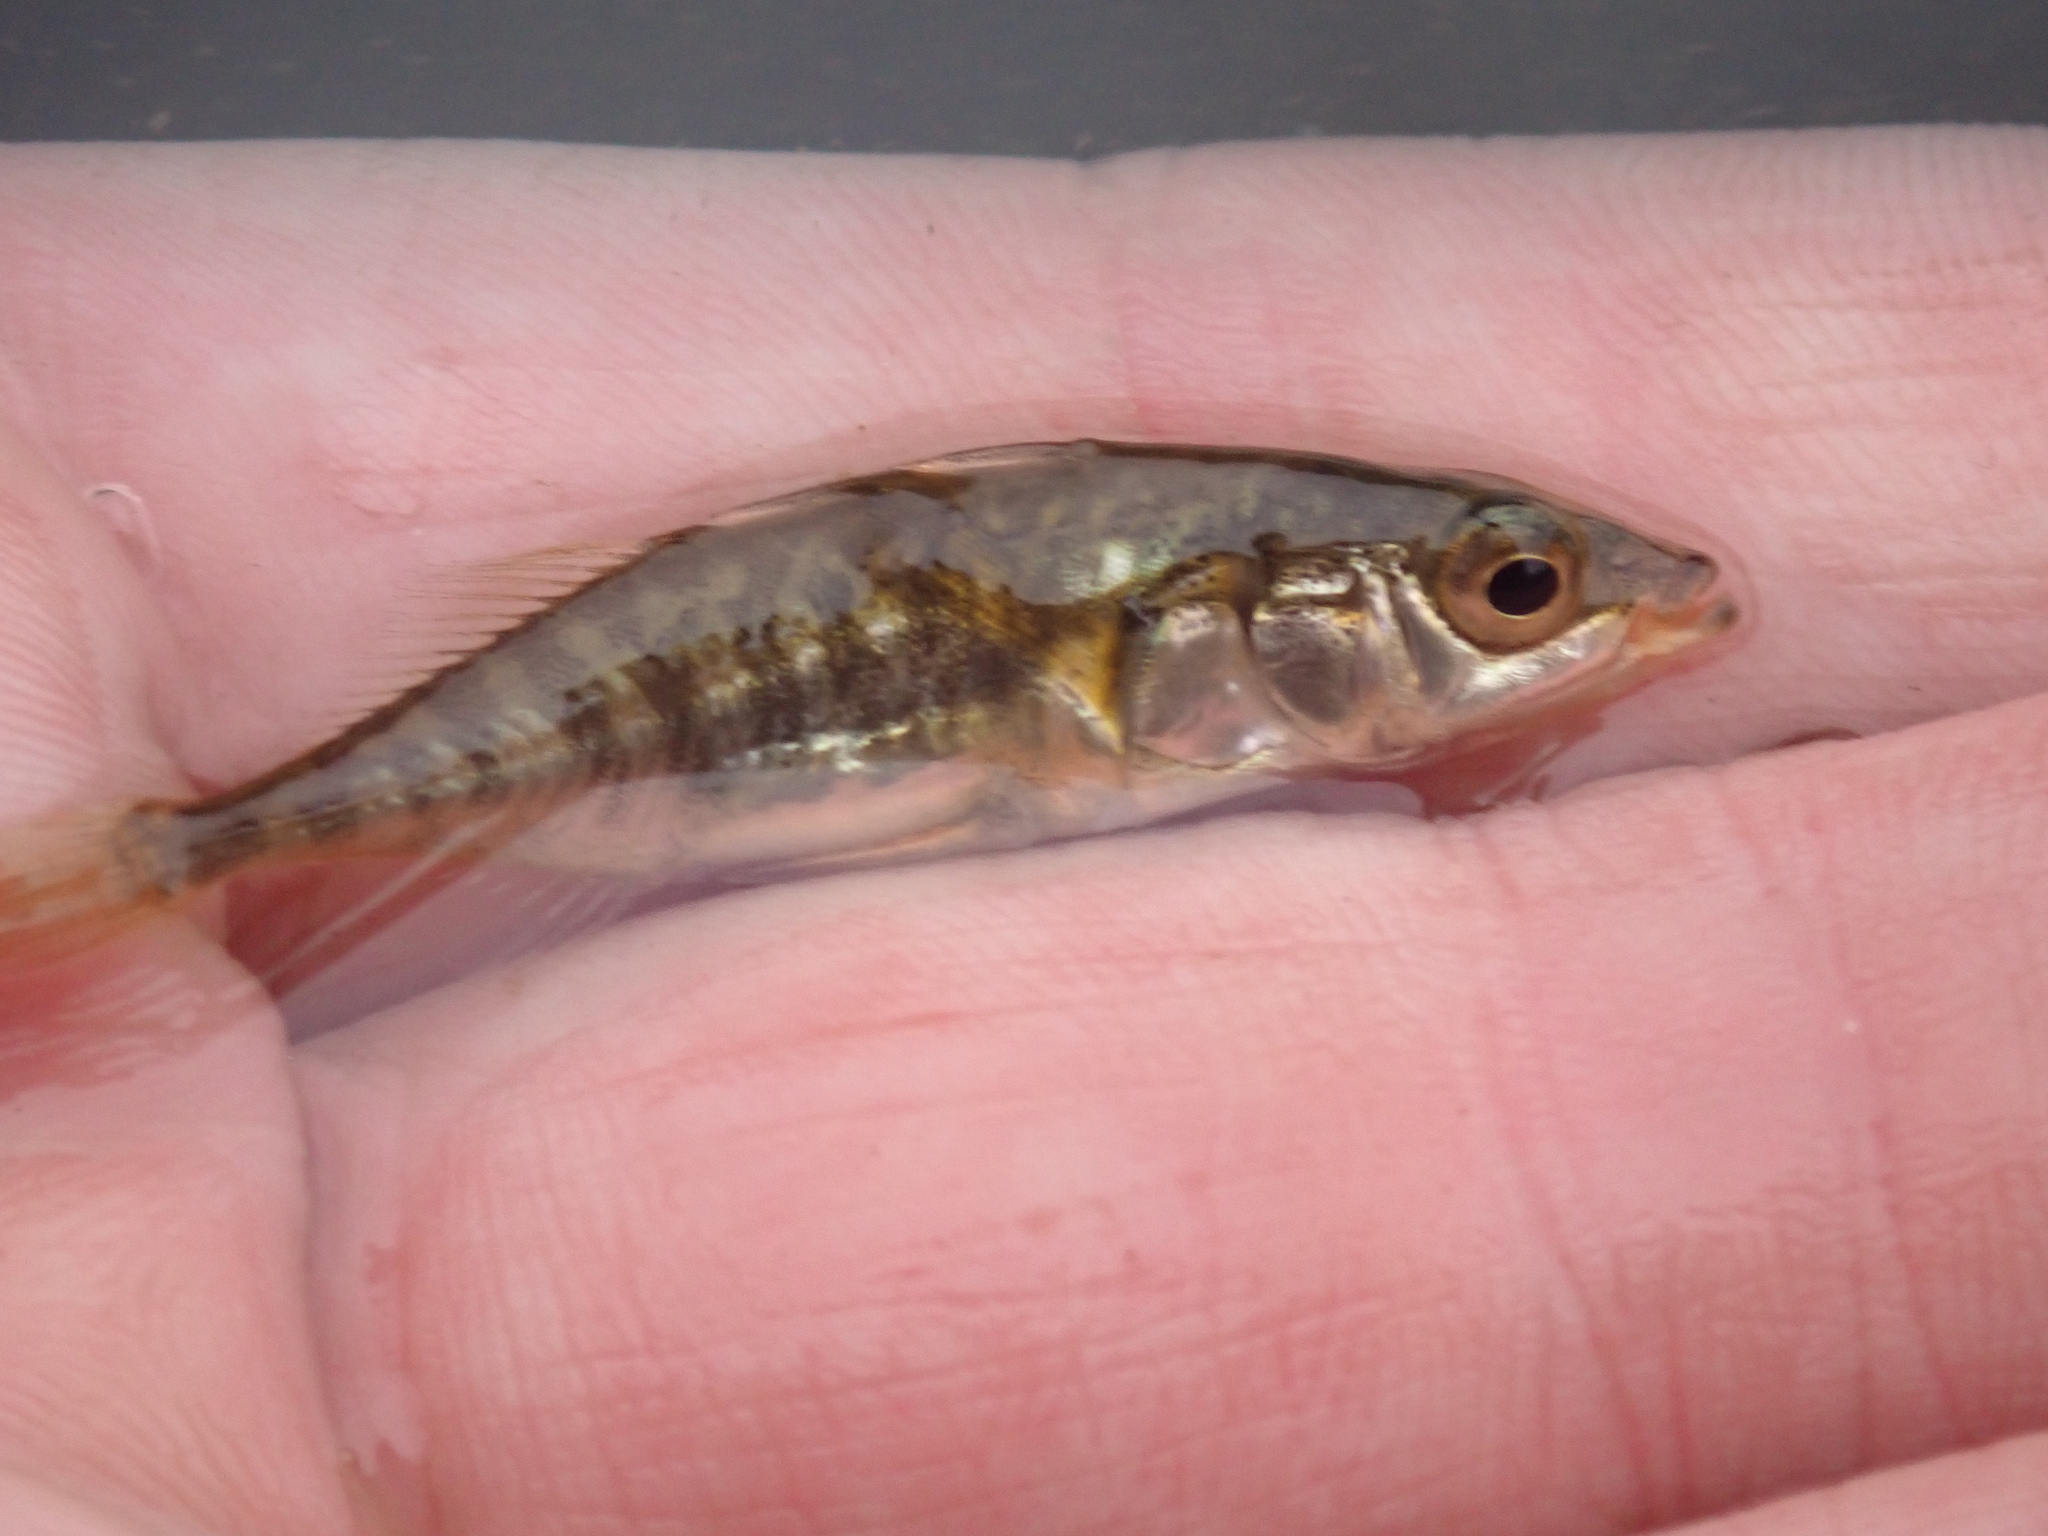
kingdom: Animalia
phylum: Chordata
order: Gasterosteiformes
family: Gasterosteidae
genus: Gasterosteus
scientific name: Gasterosteus aculeatus
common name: Three-spined stickleback
